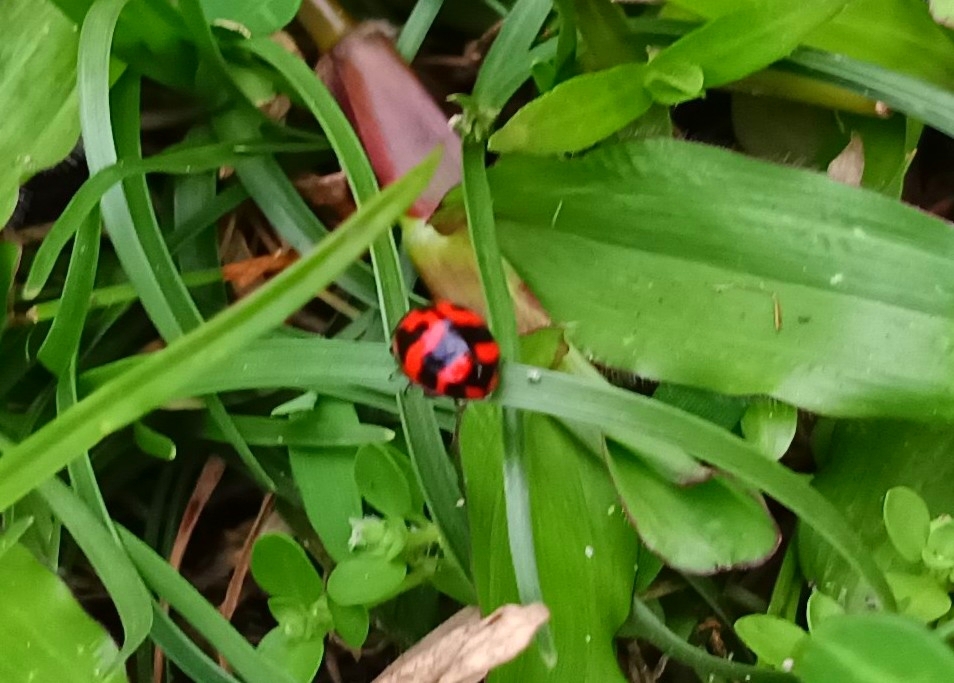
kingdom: Animalia
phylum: Arthropoda
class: Insecta
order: Coleoptera
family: Coccinellidae
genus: Coccinella
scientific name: Coccinella transversalis
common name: Transverse lady beetle
